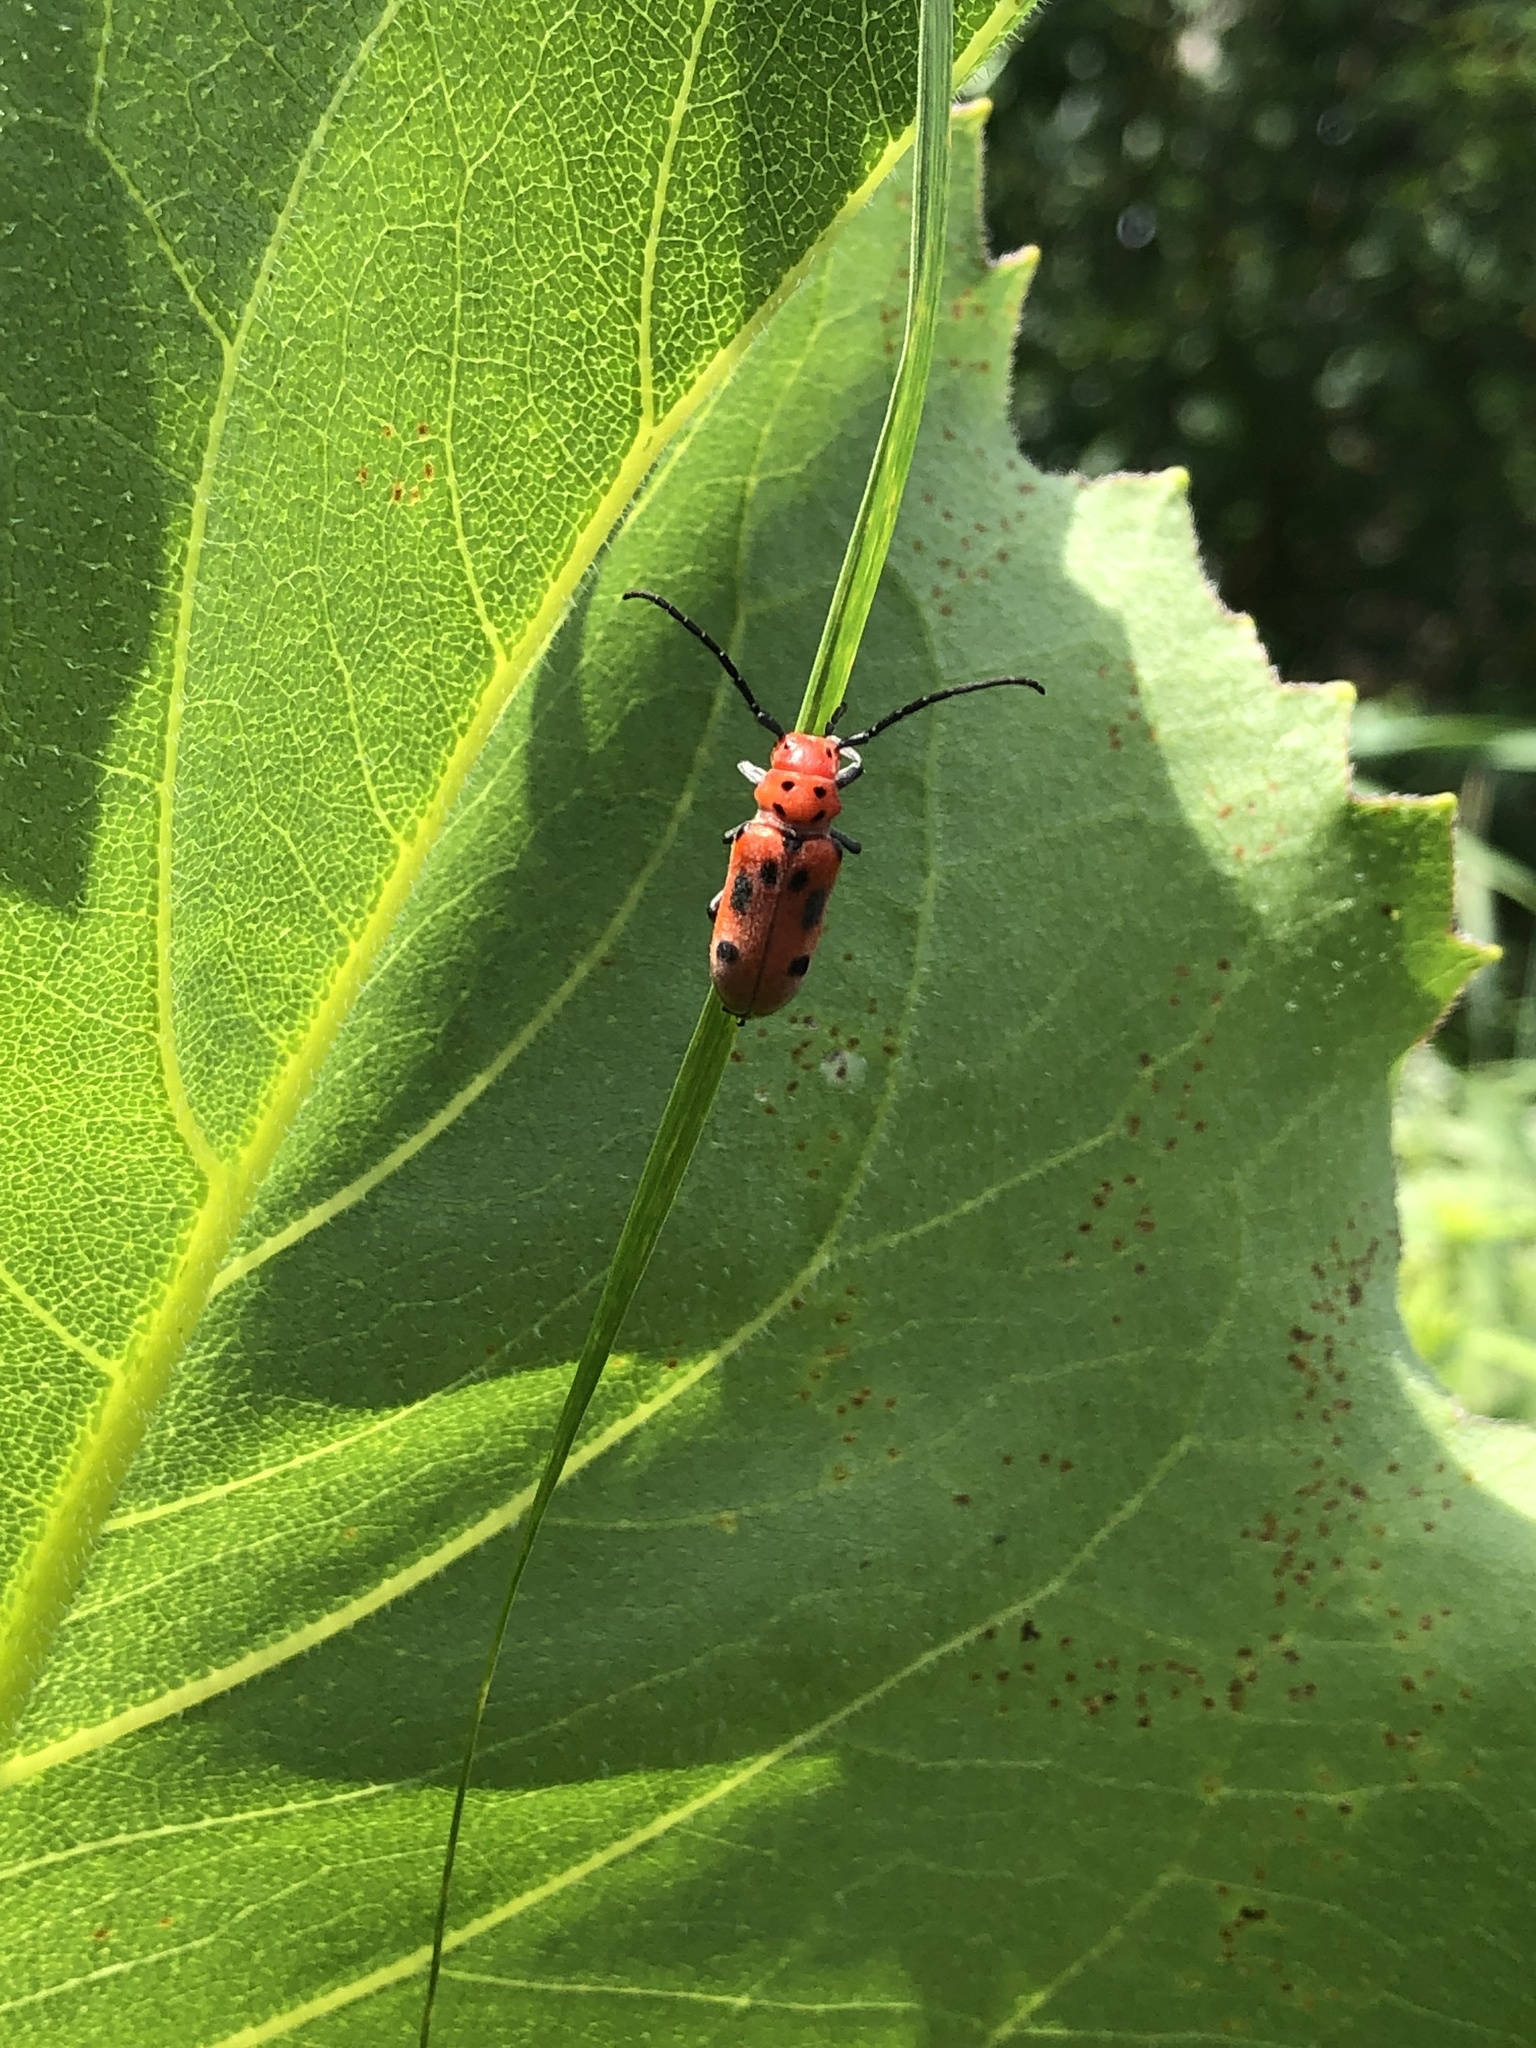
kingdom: Animalia
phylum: Arthropoda
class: Insecta
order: Coleoptera
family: Cerambycidae
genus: Tetraopes
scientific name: Tetraopes tetrophthalmus
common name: Red milkweed beetle
